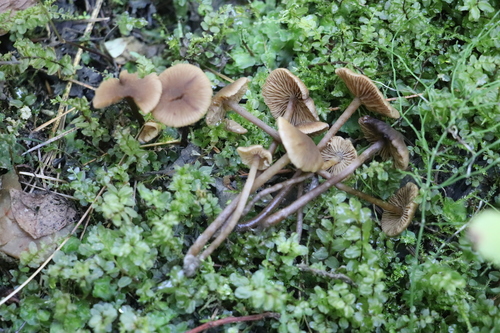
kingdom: Fungi
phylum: Basidiomycota
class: Agaricomycetes
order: Agaricales
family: Hymenogastraceae
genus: Naucoria
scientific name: Naucoria
